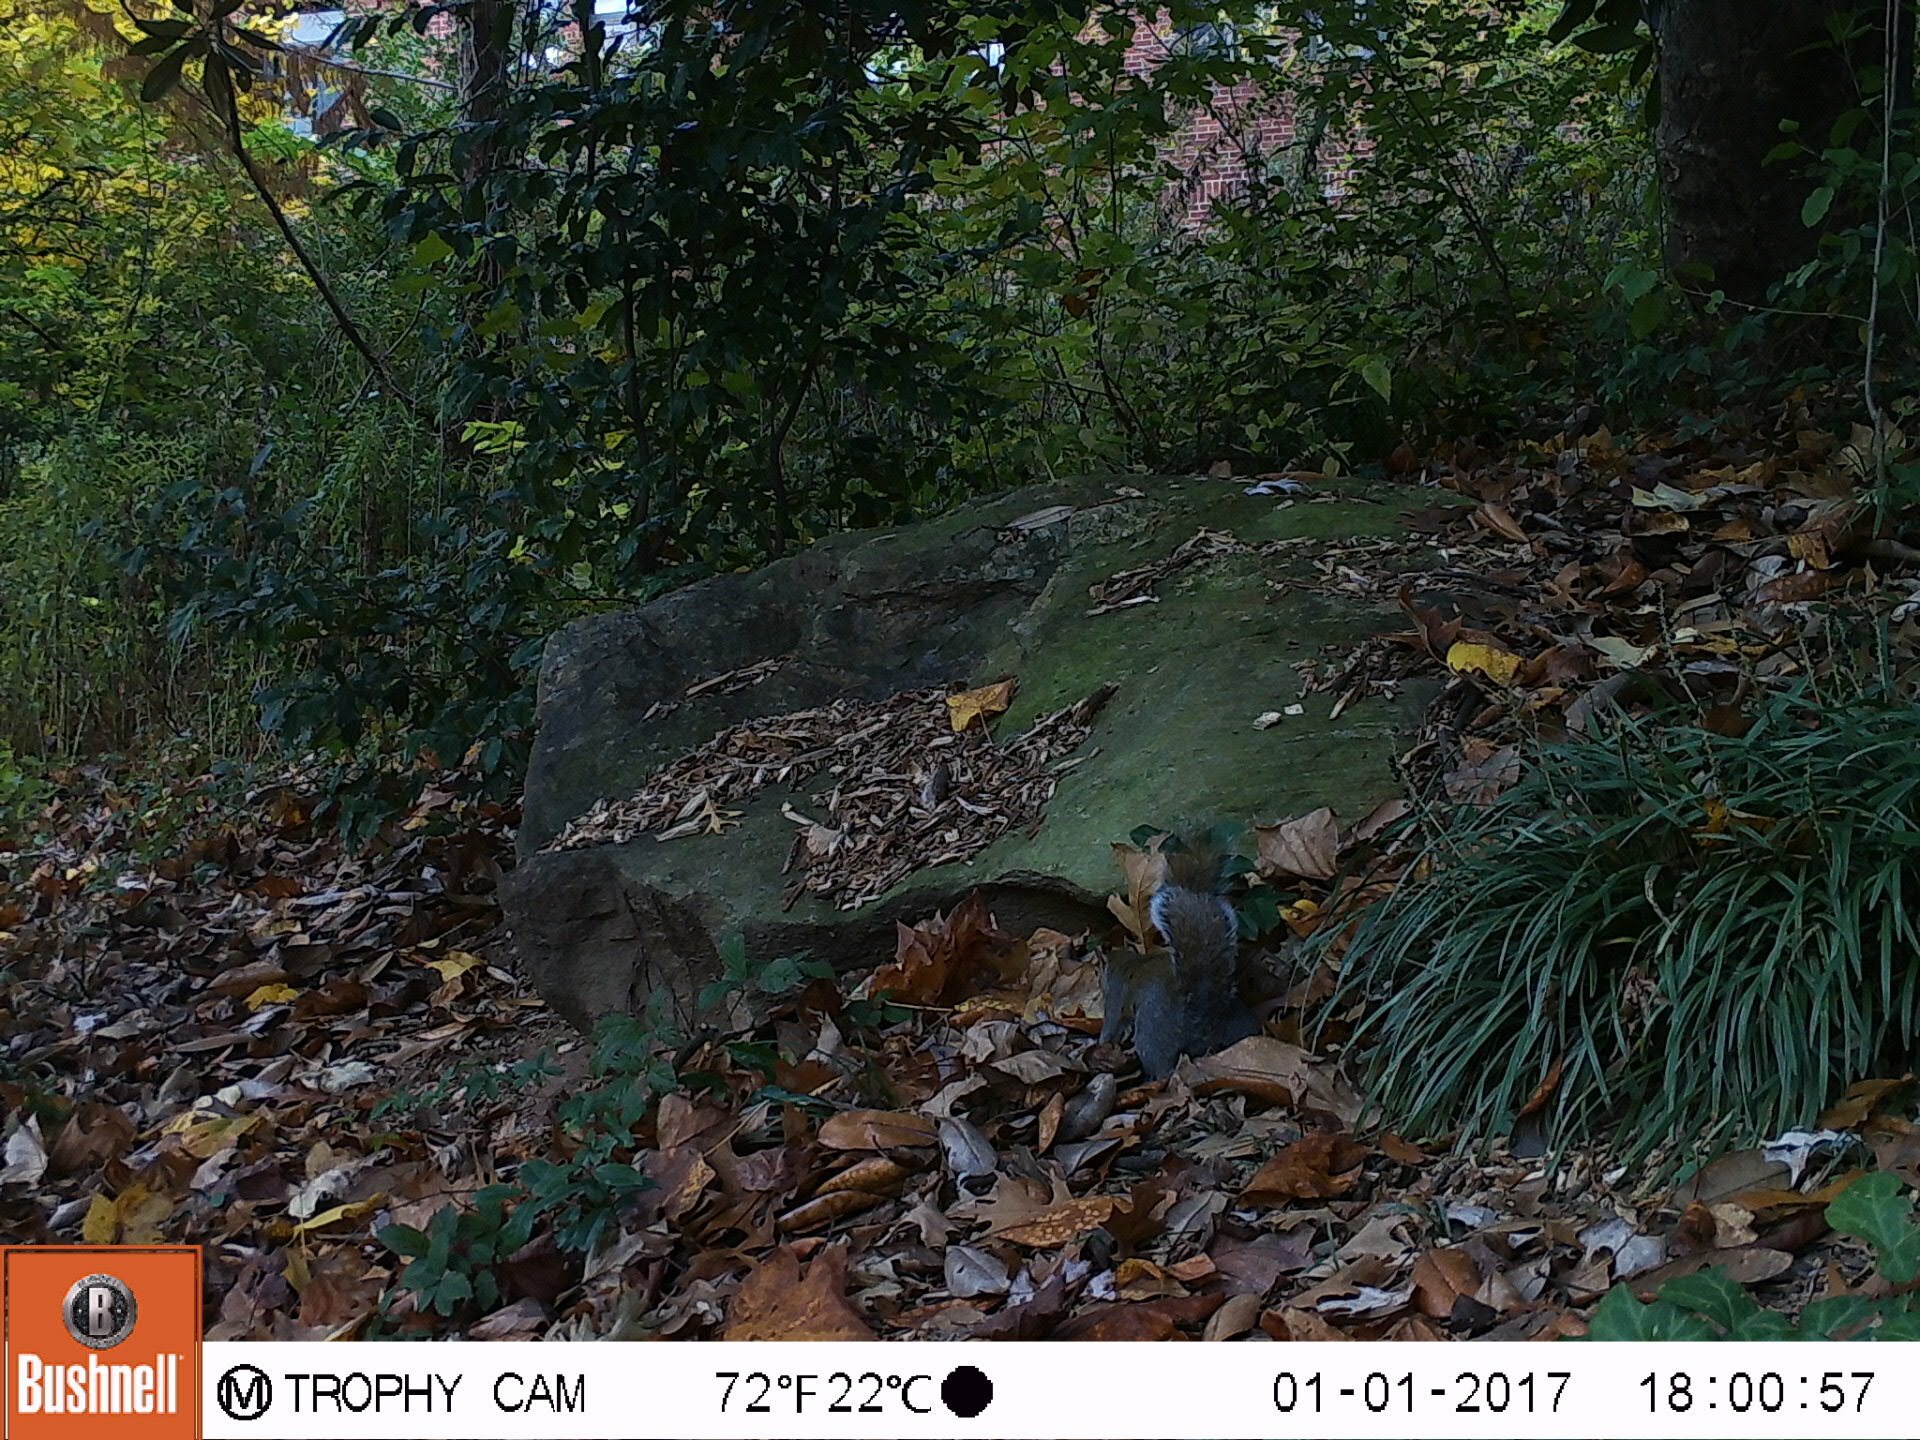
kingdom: Animalia
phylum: Chordata
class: Mammalia
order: Rodentia
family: Sciuridae
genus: Sciurus
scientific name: Sciurus carolinensis
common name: Eastern gray squirrel
